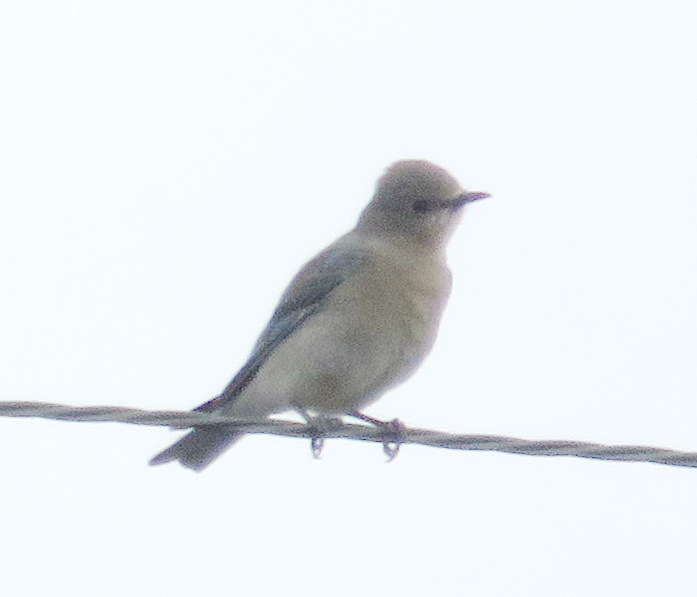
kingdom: Animalia
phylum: Chordata
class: Aves
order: Passeriformes
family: Turdidae
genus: Sialia
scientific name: Sialia currucoides
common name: Mountain bluebird
